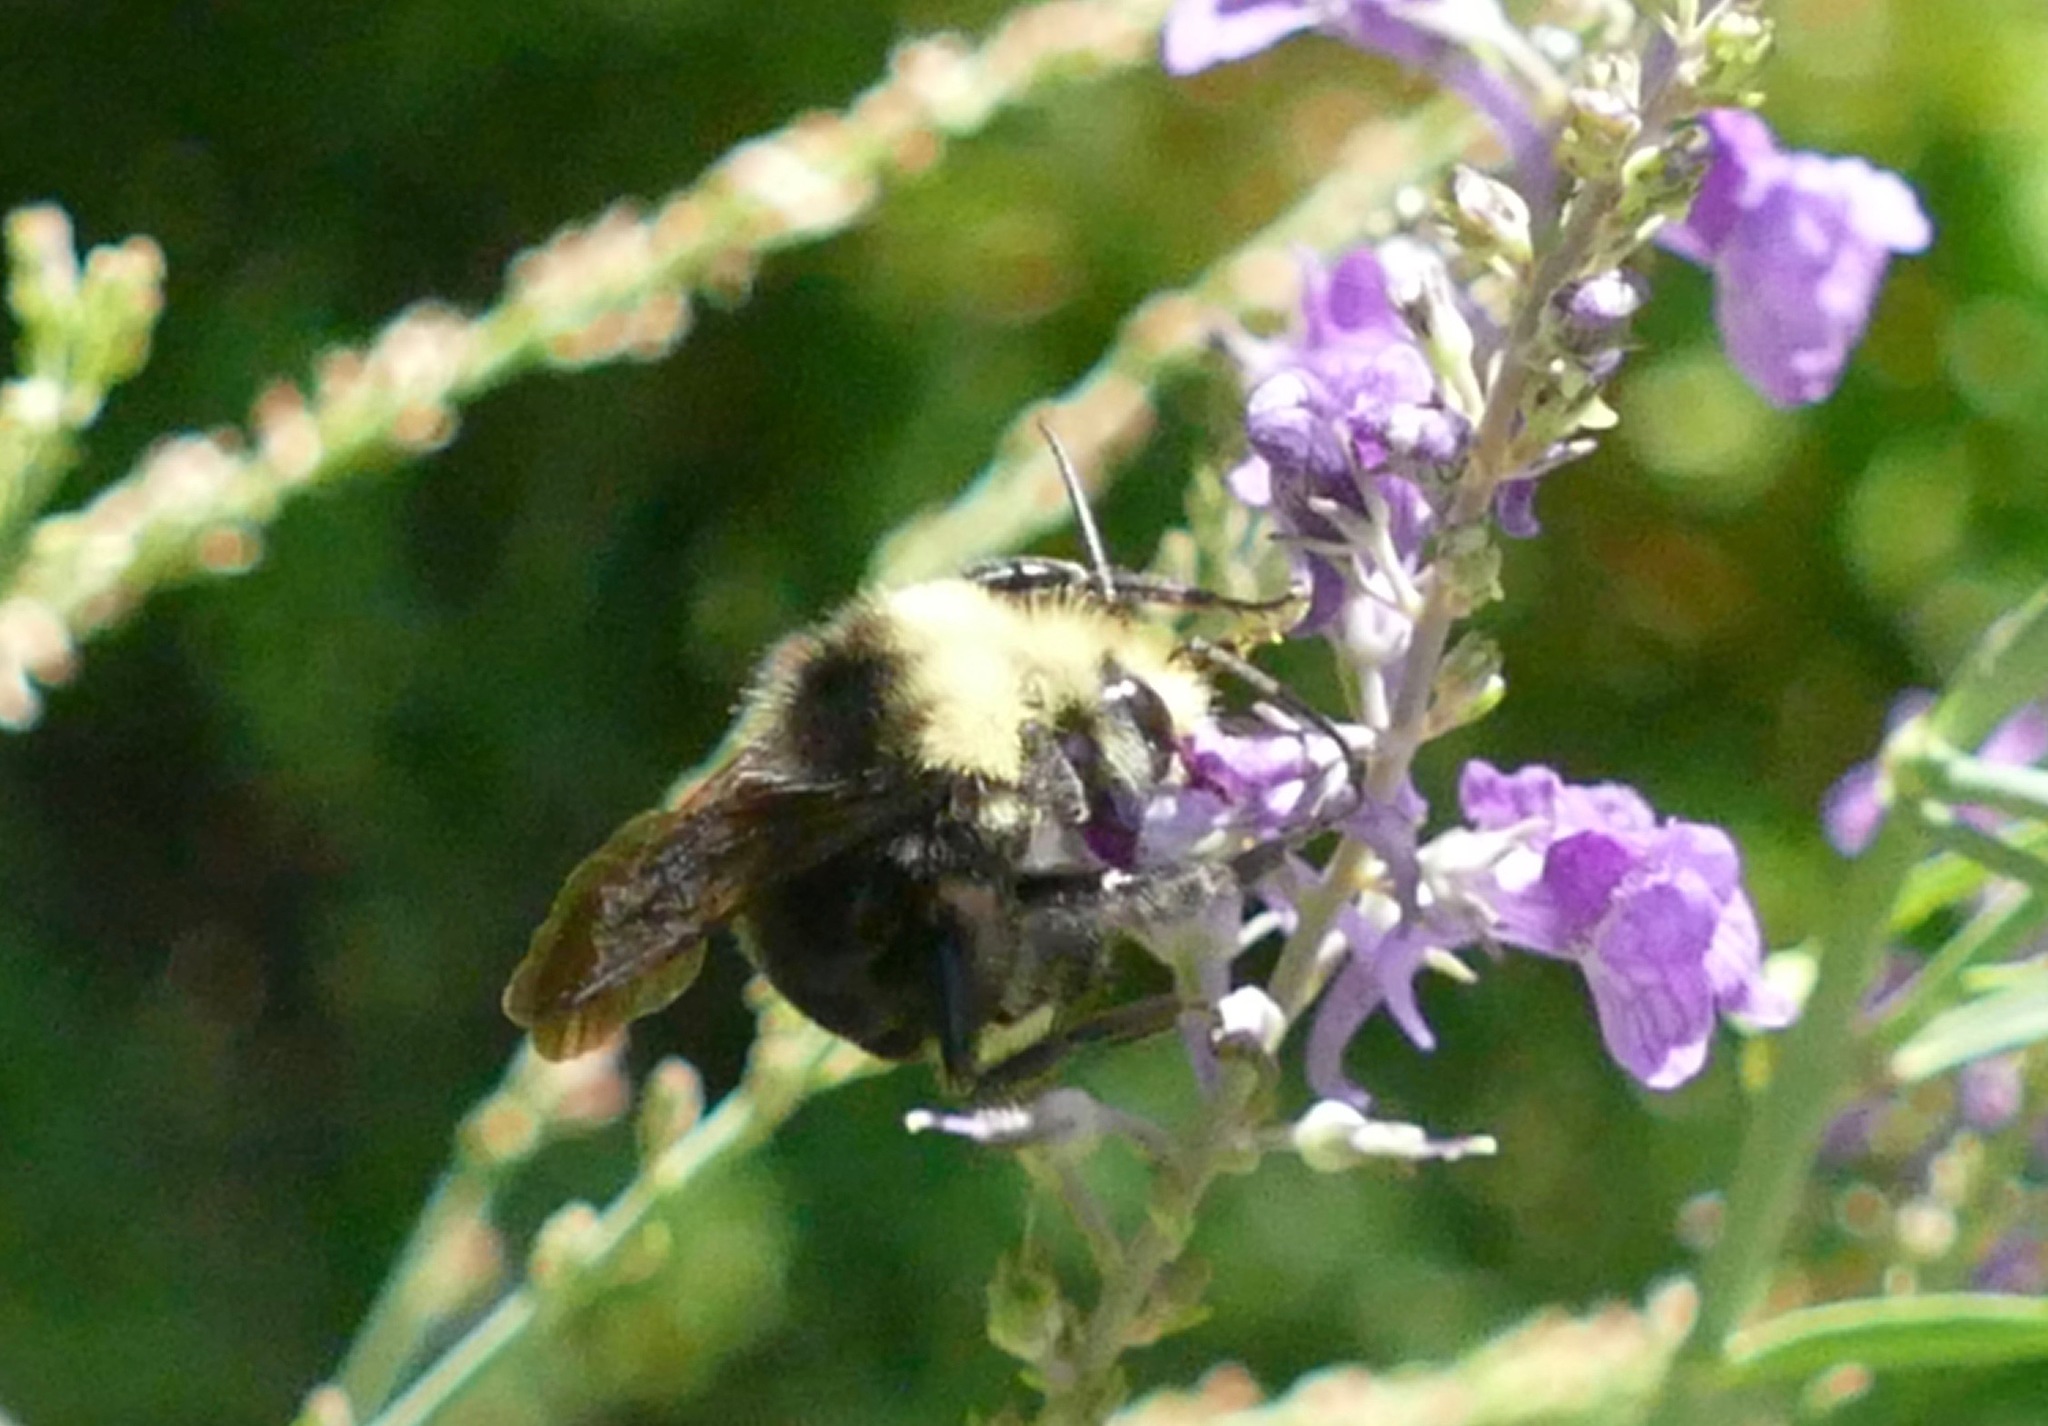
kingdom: Animalia
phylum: Arthropoda
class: Insecta
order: Hymenoptera
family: Apidae
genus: Bombus
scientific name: Bombus vosnesenskii
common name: Vosnesensky bumble bee
